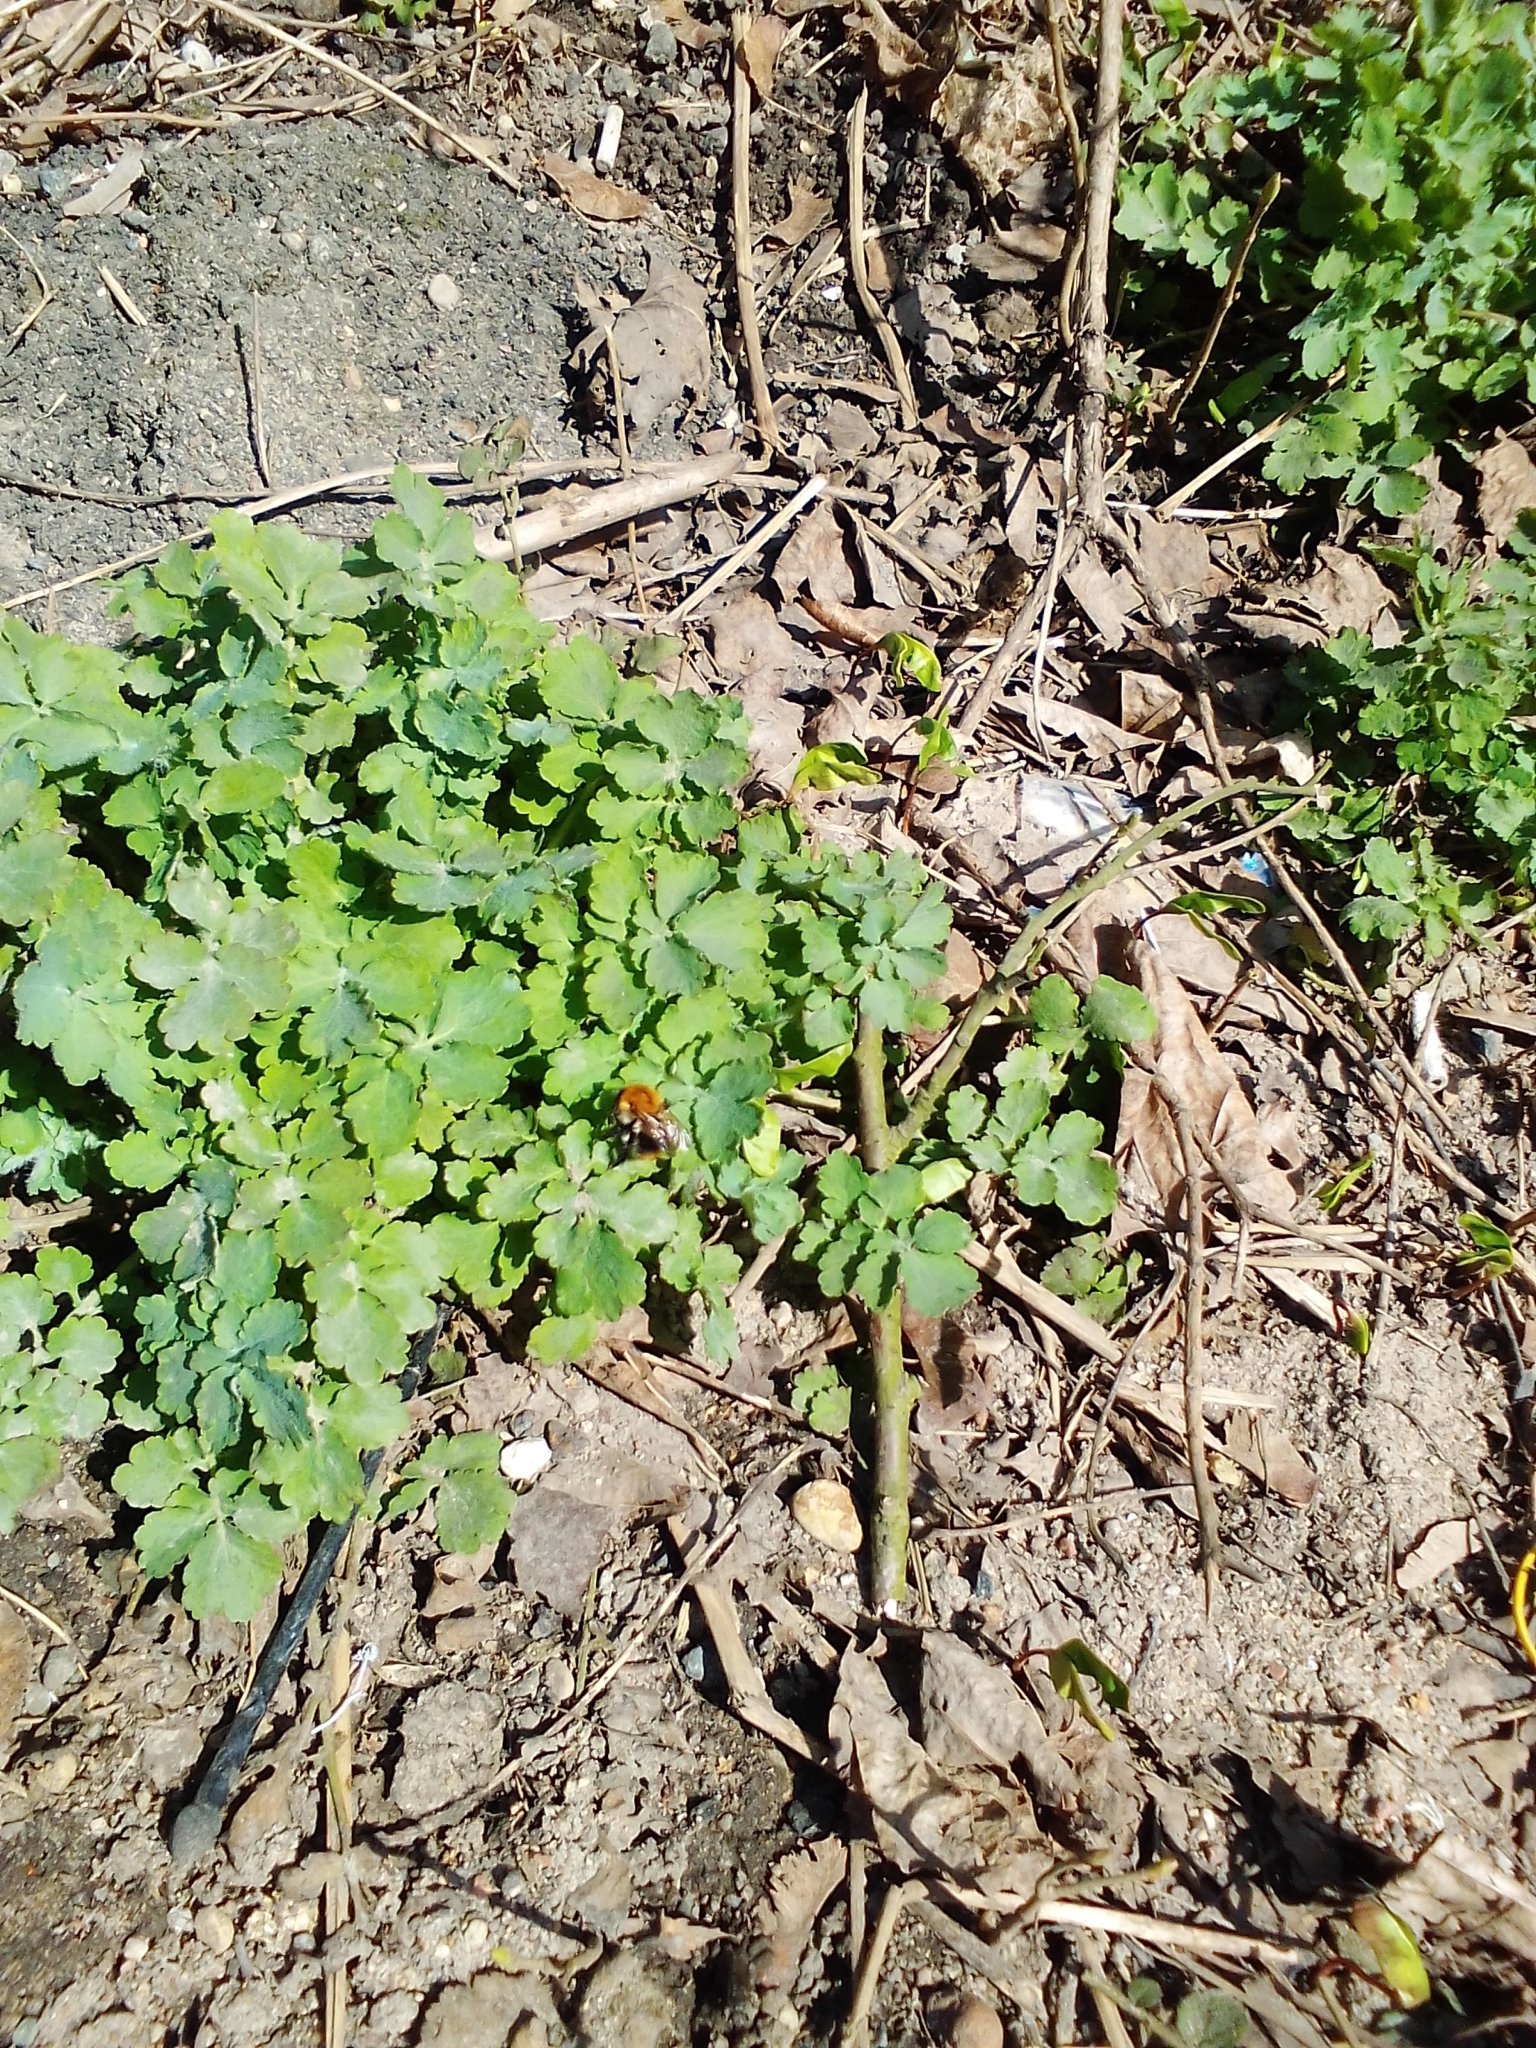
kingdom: Plantae
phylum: Tracheophyta
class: Magnoliopsida
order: Ranunculales
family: Papaveraceae
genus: Chelidonium
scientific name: Chelidonium majus
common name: Greater celandine
